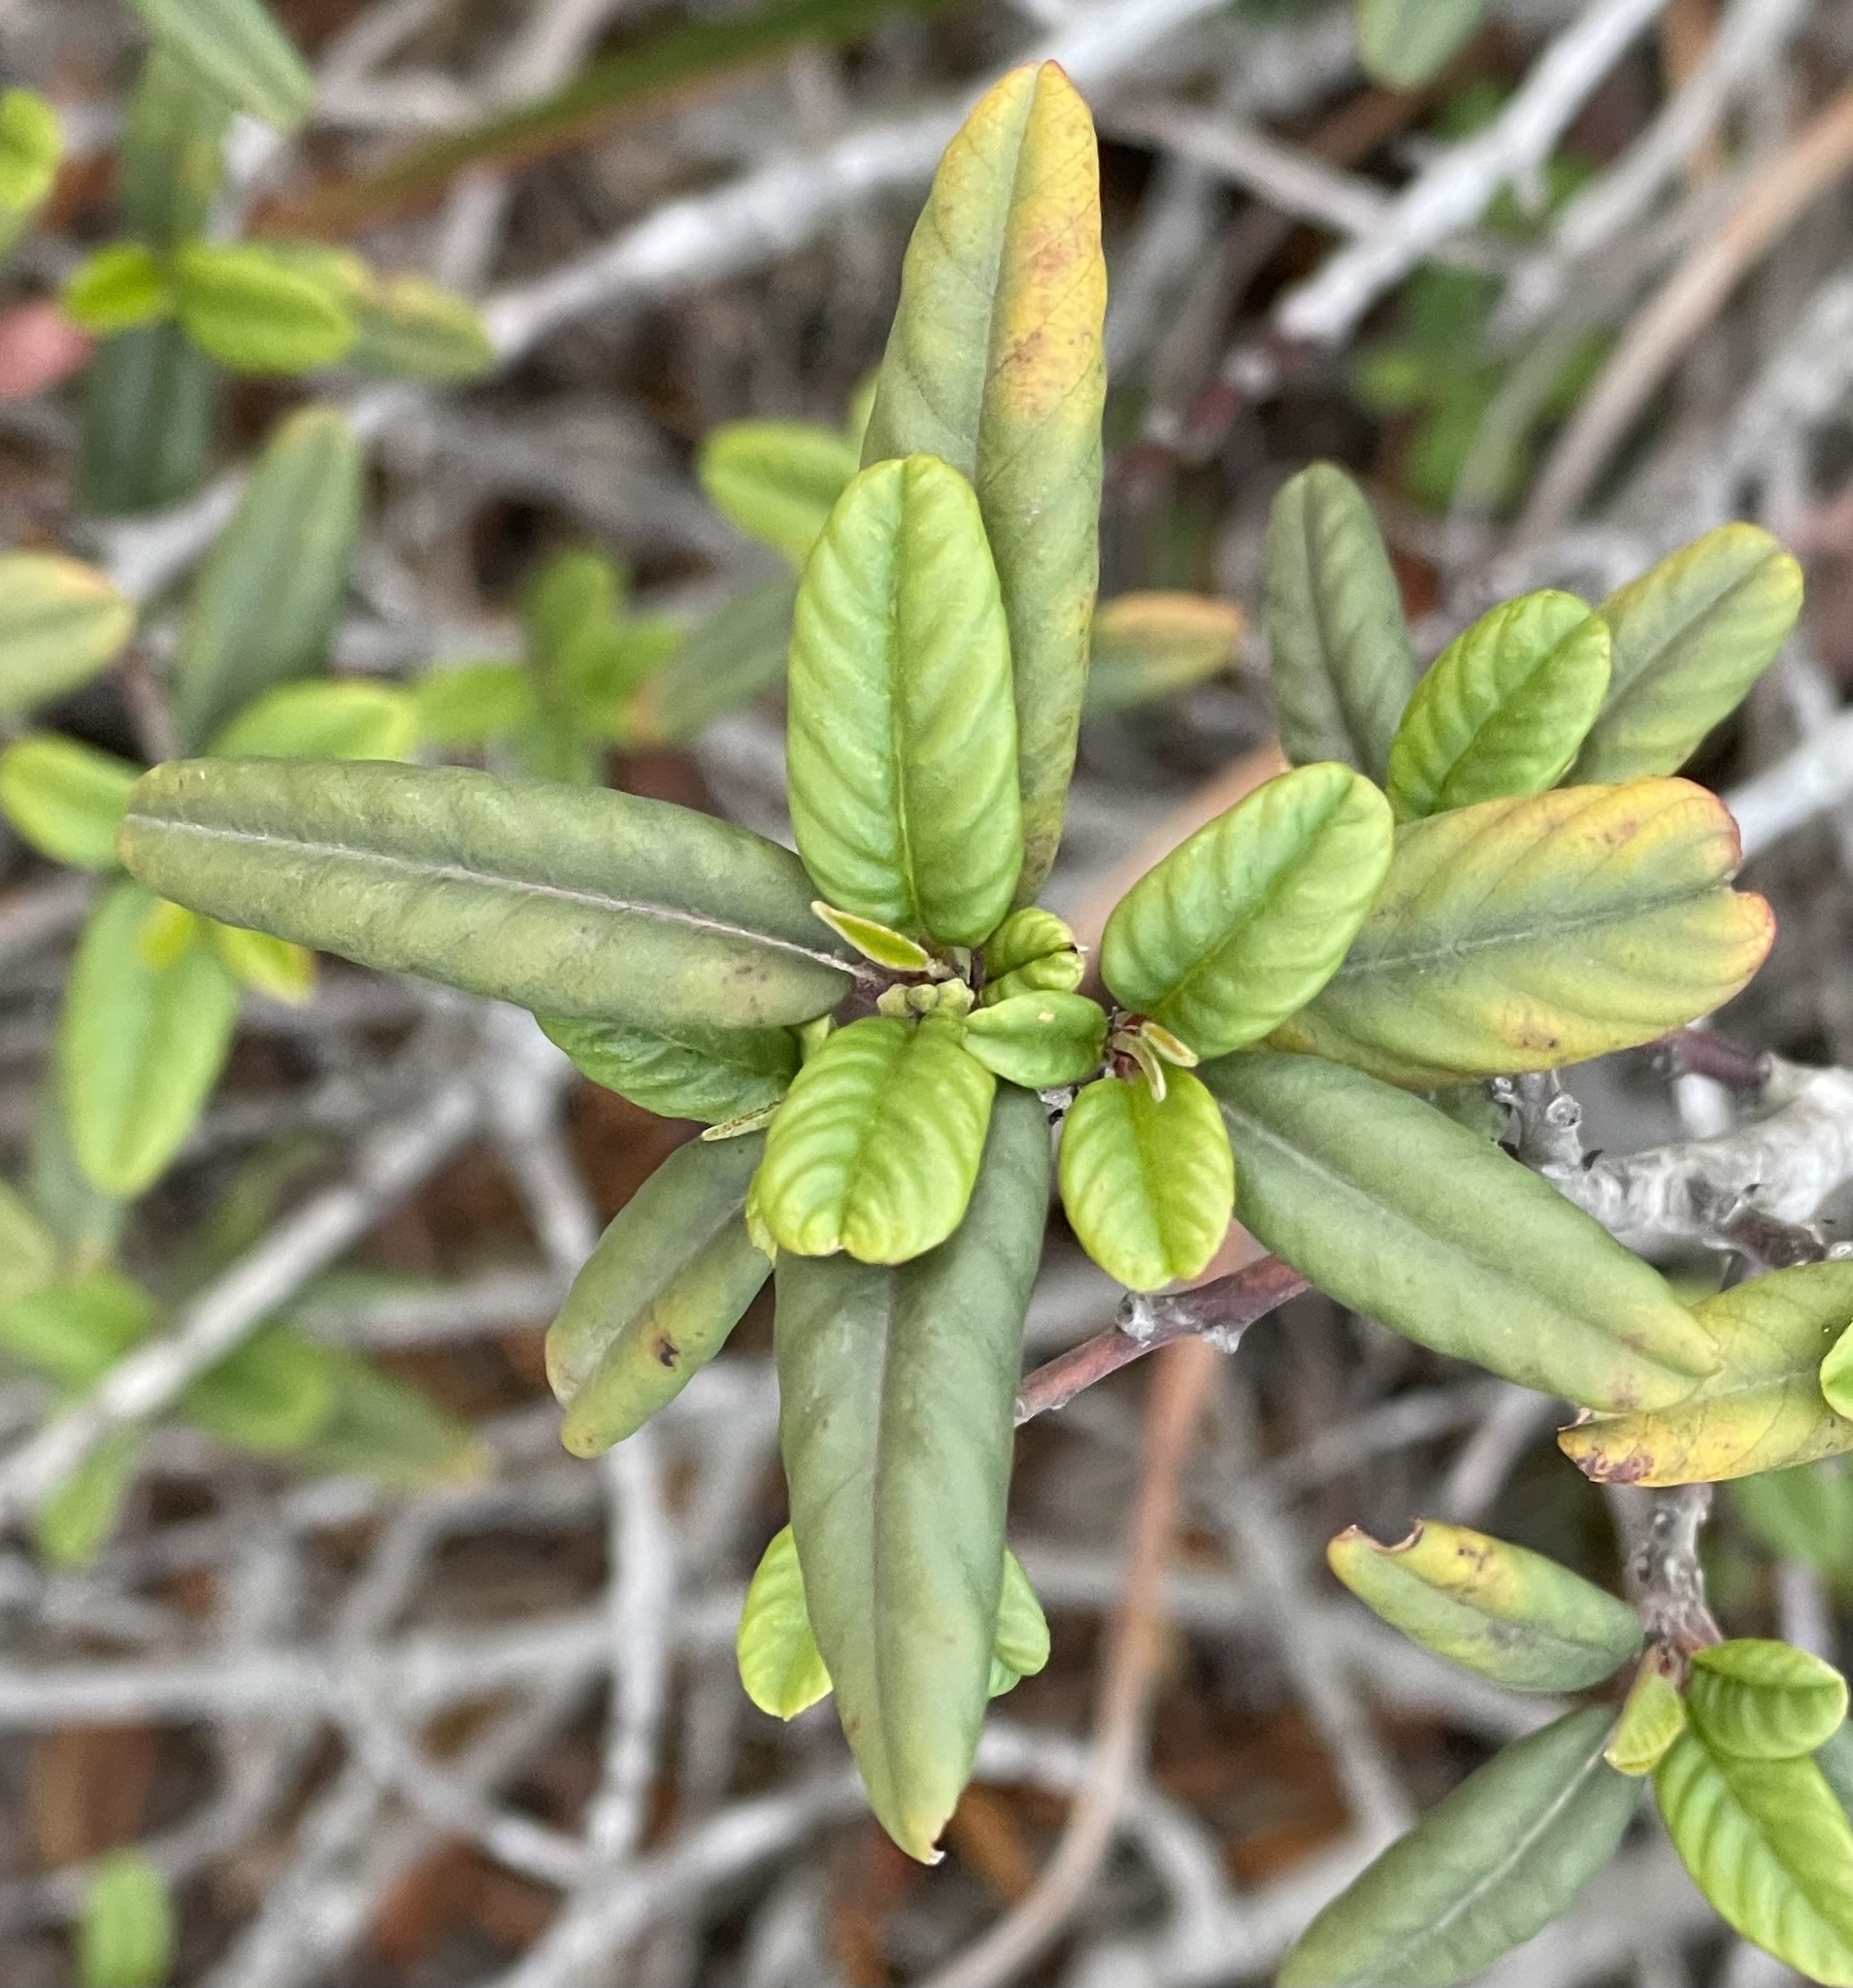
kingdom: Plantae
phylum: Tracheophyta
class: Magnoliopsida
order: Rosales
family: Rhamnaceae
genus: Frangula
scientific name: Frangula californica
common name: California buckthorn
